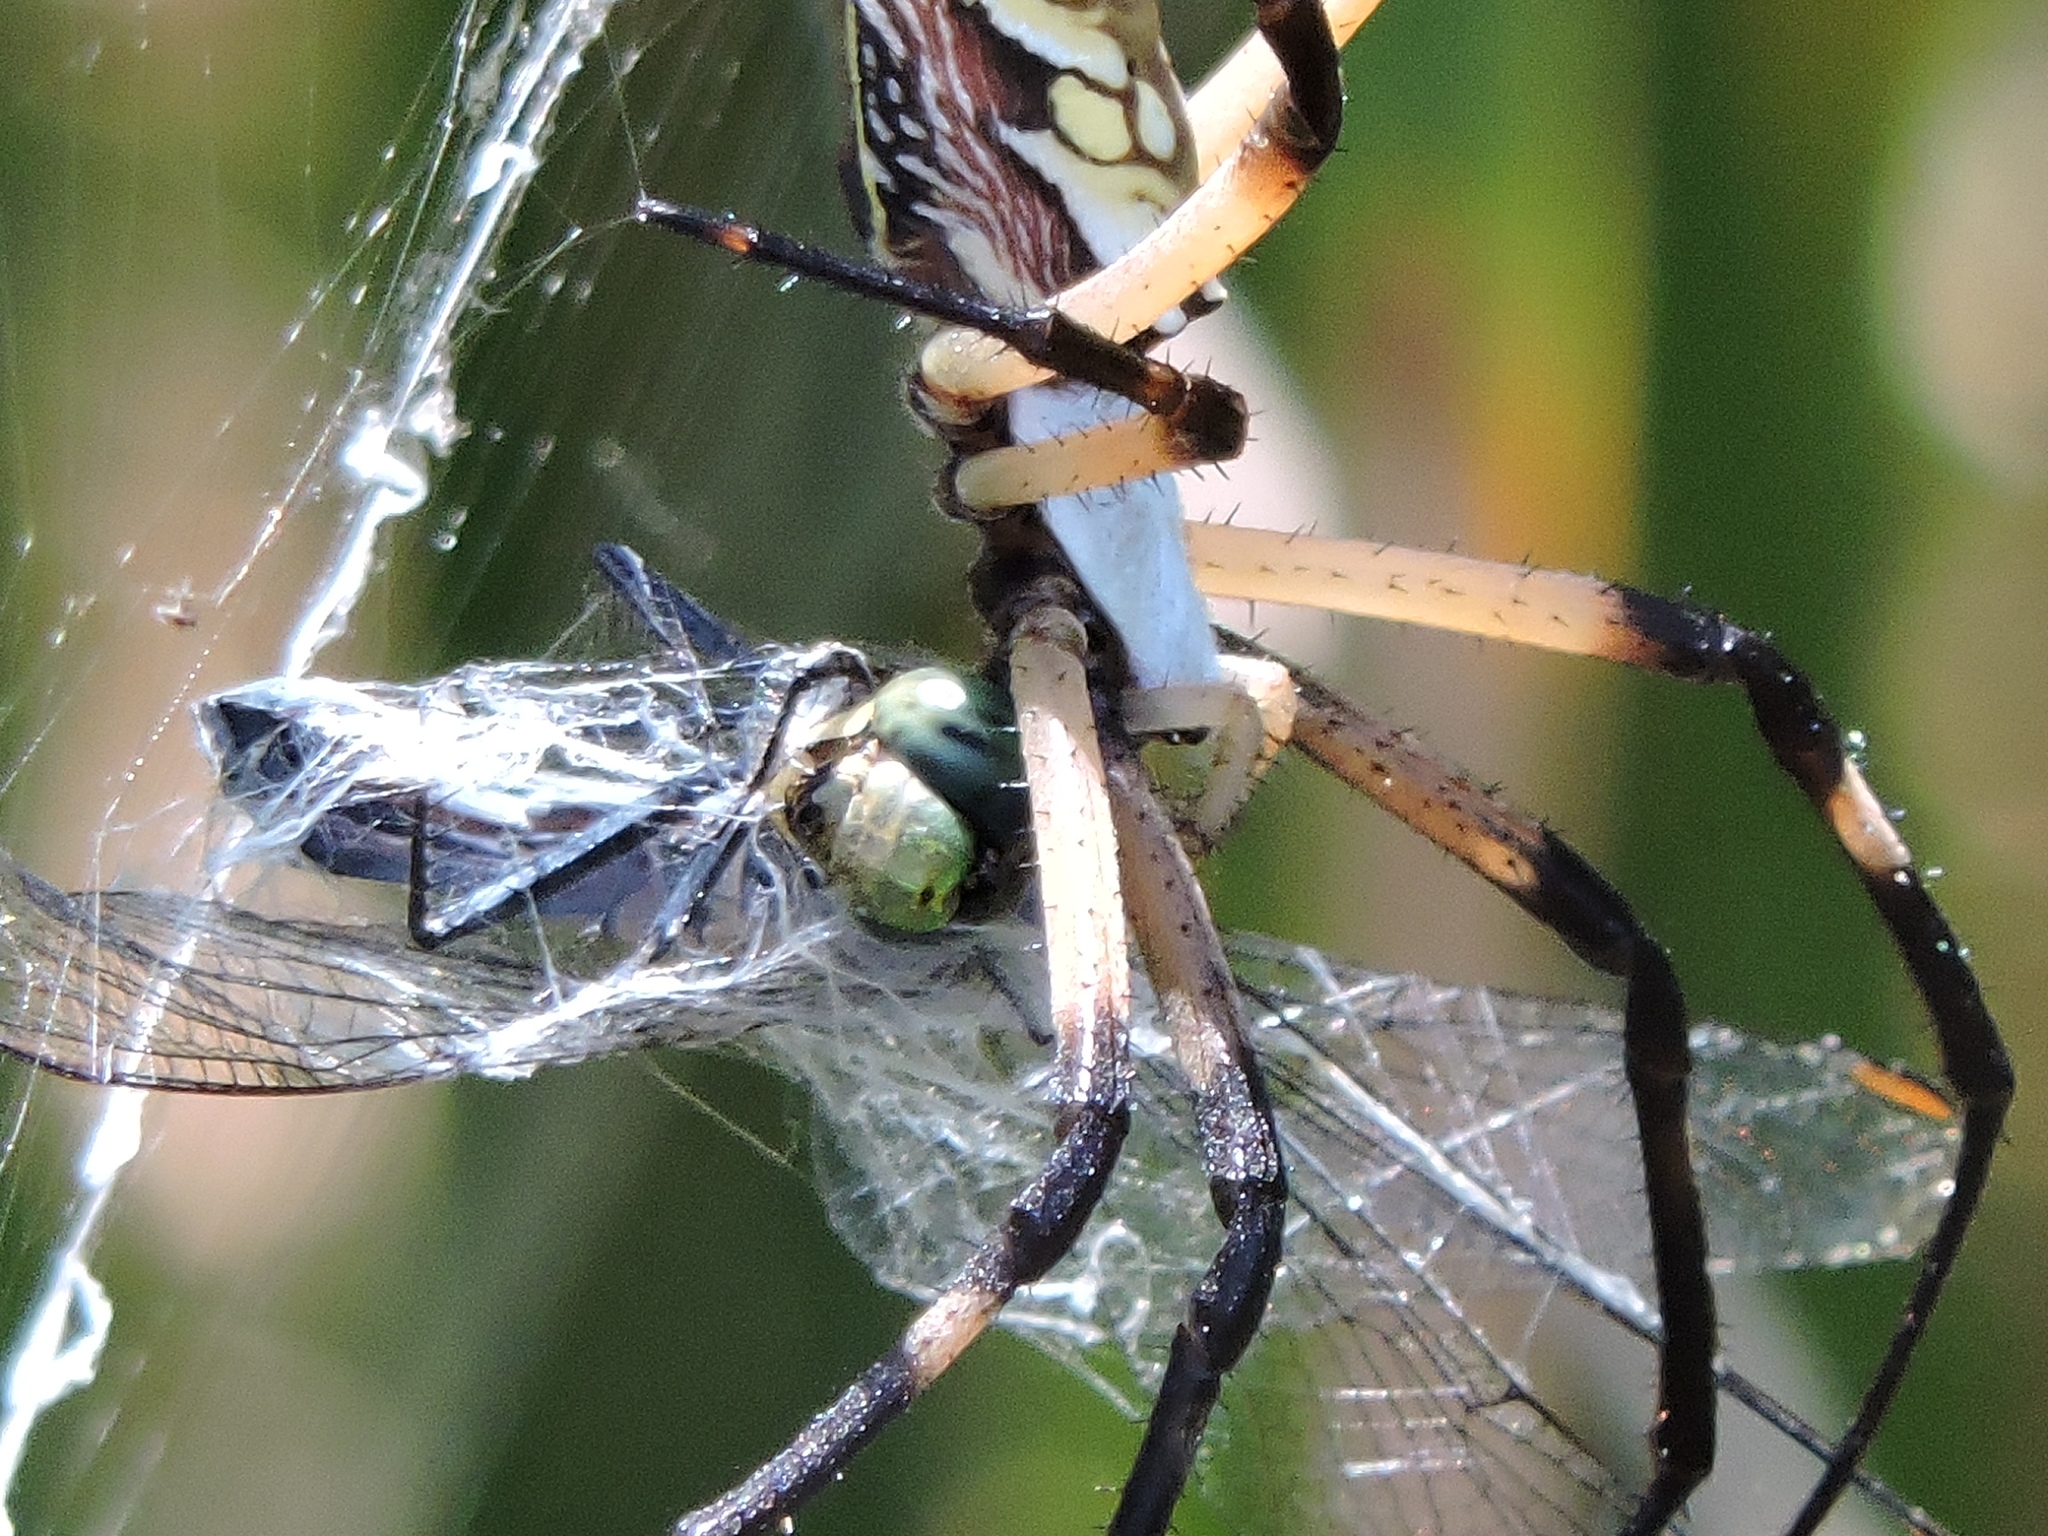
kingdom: Animalia
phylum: Arthropoda
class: Arachnida
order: Araneae
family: Araneidae
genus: Argiope
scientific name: Argiope aurantia
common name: Orb weavers
